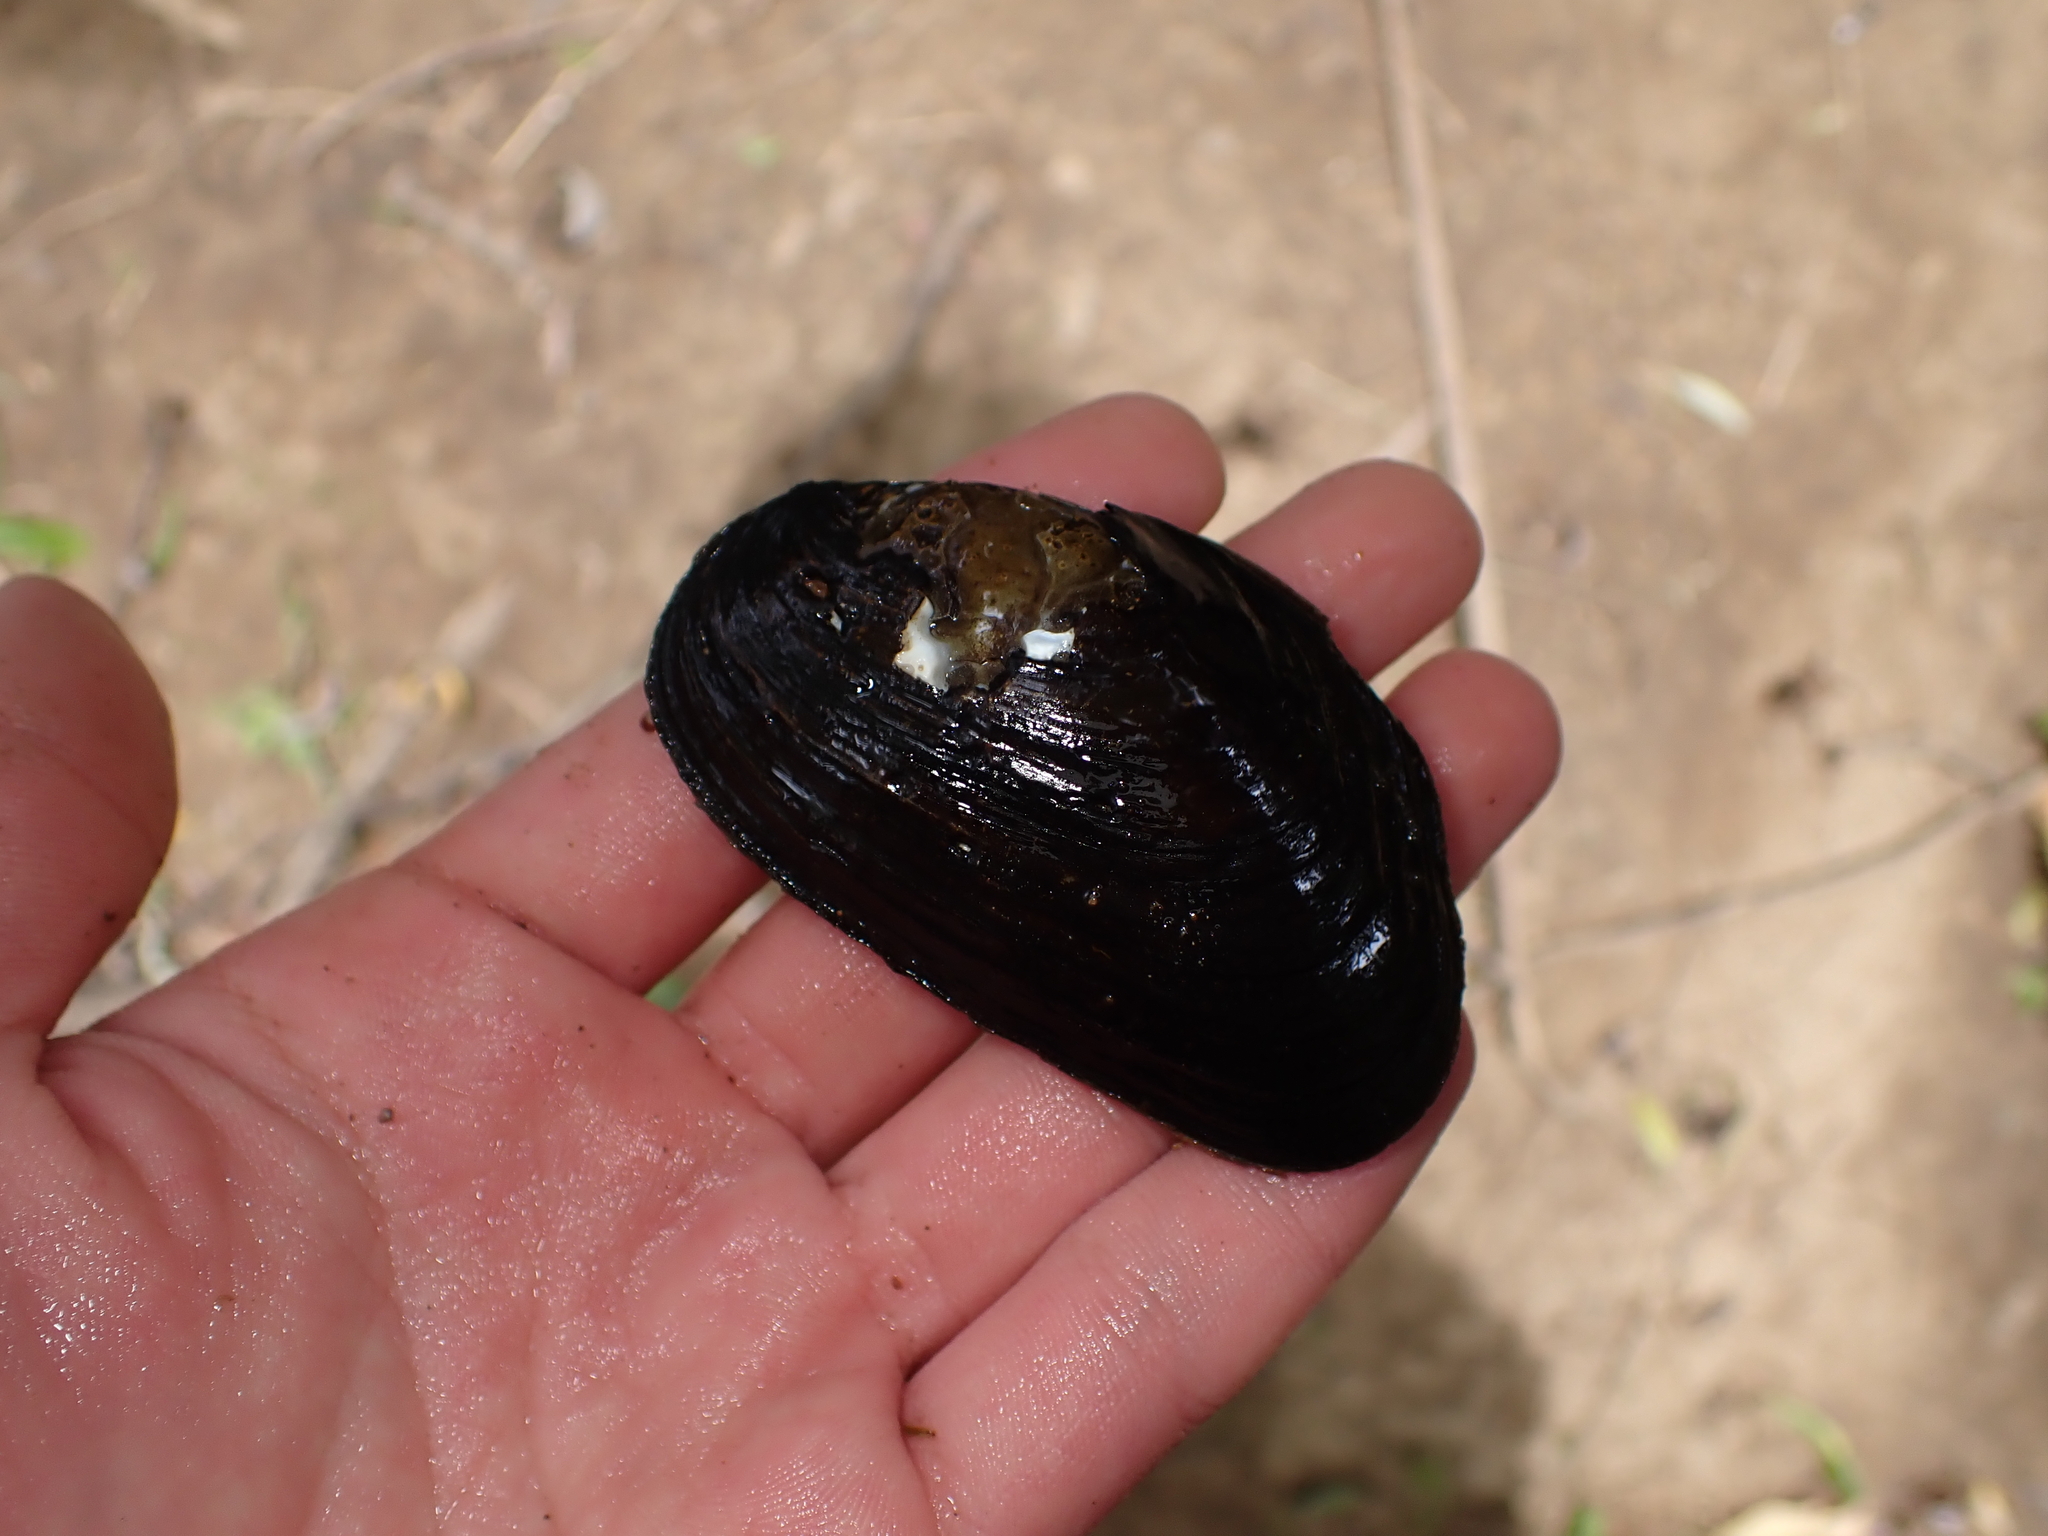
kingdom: Animalia
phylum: Mollusca
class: Bivalvia
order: Unionida
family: Hyriidae
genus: Echyridella
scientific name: Echyridella menziesii
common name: New zealand freshwater mussel
